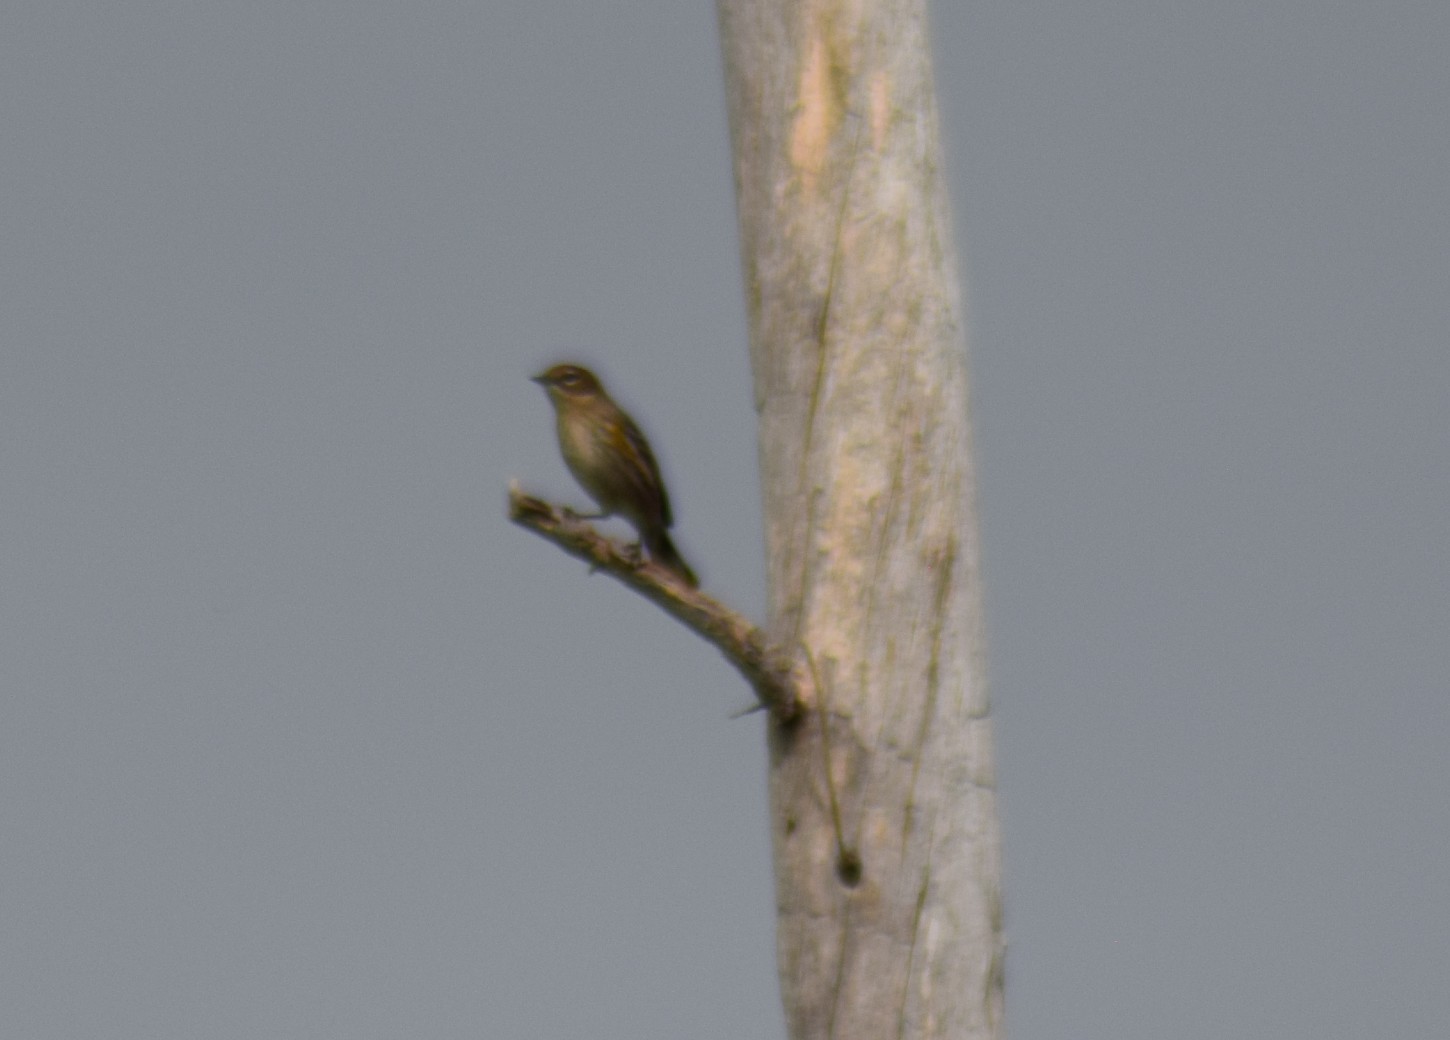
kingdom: Animalia
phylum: Chordata
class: Aves
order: Passeriformes
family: Parulidae
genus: Setophaga
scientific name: Setophaga coronata
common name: Myrtle warbler
